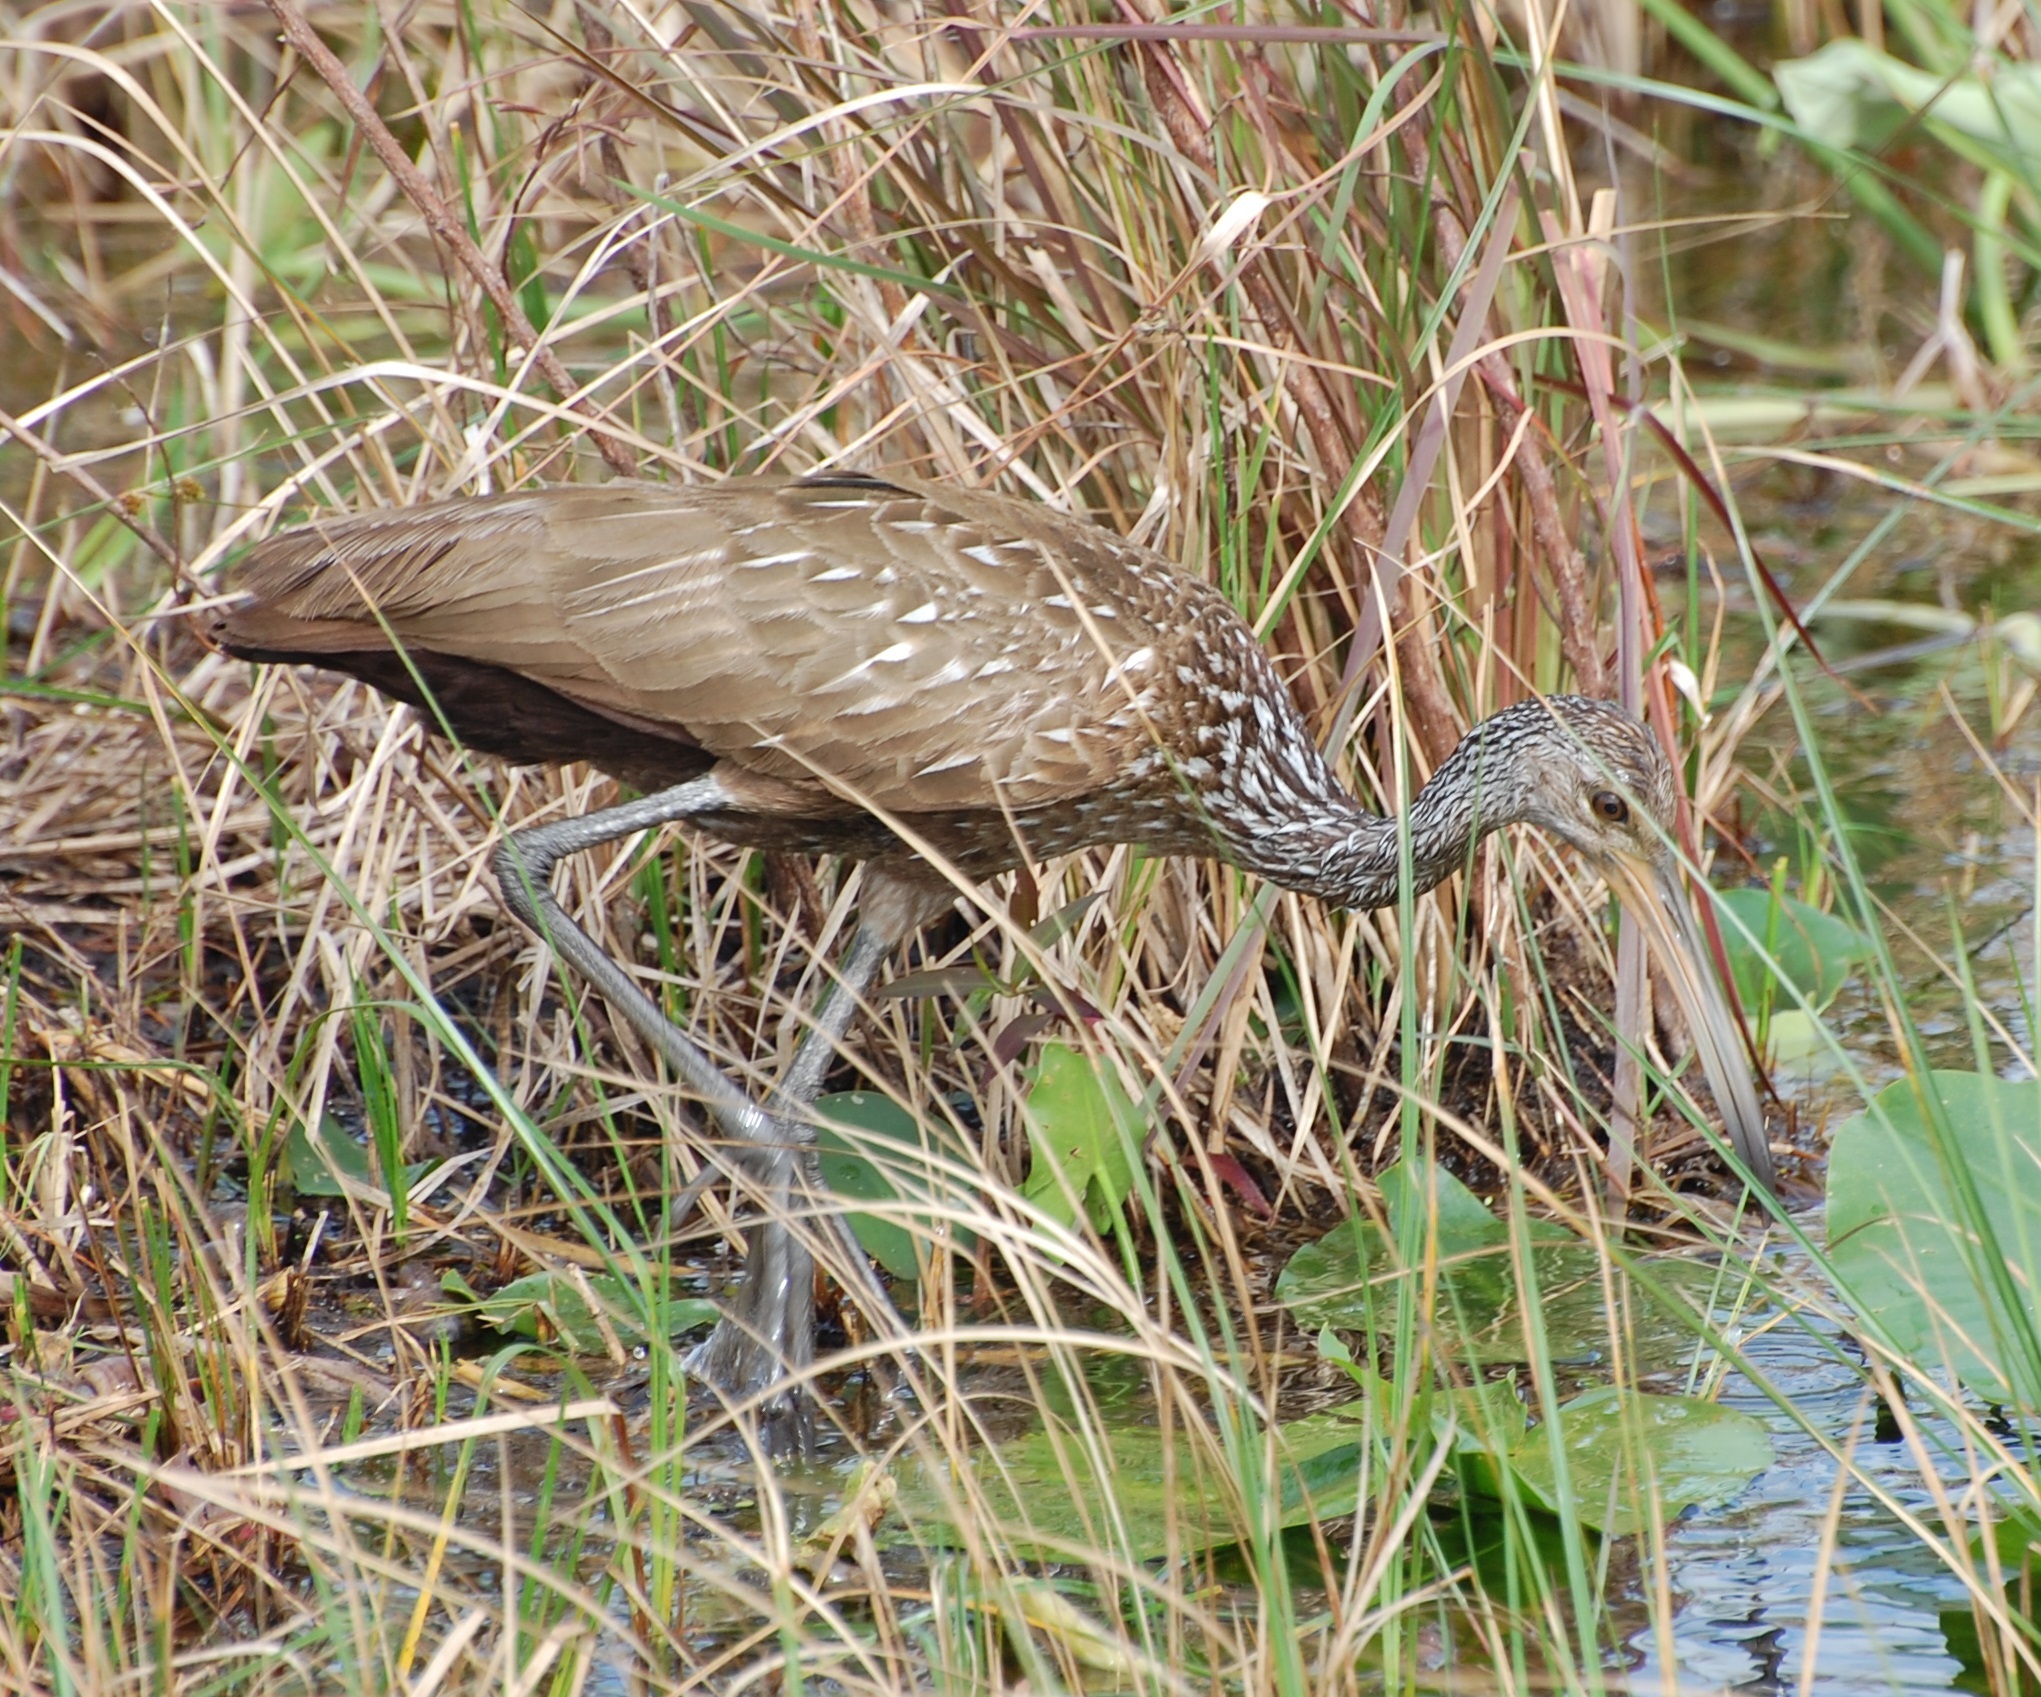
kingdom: Animalia
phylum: Chordata
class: Aves
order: Gruiformes
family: Aramidae
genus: Aramus
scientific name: Aramus guarauna
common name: Limpkin
